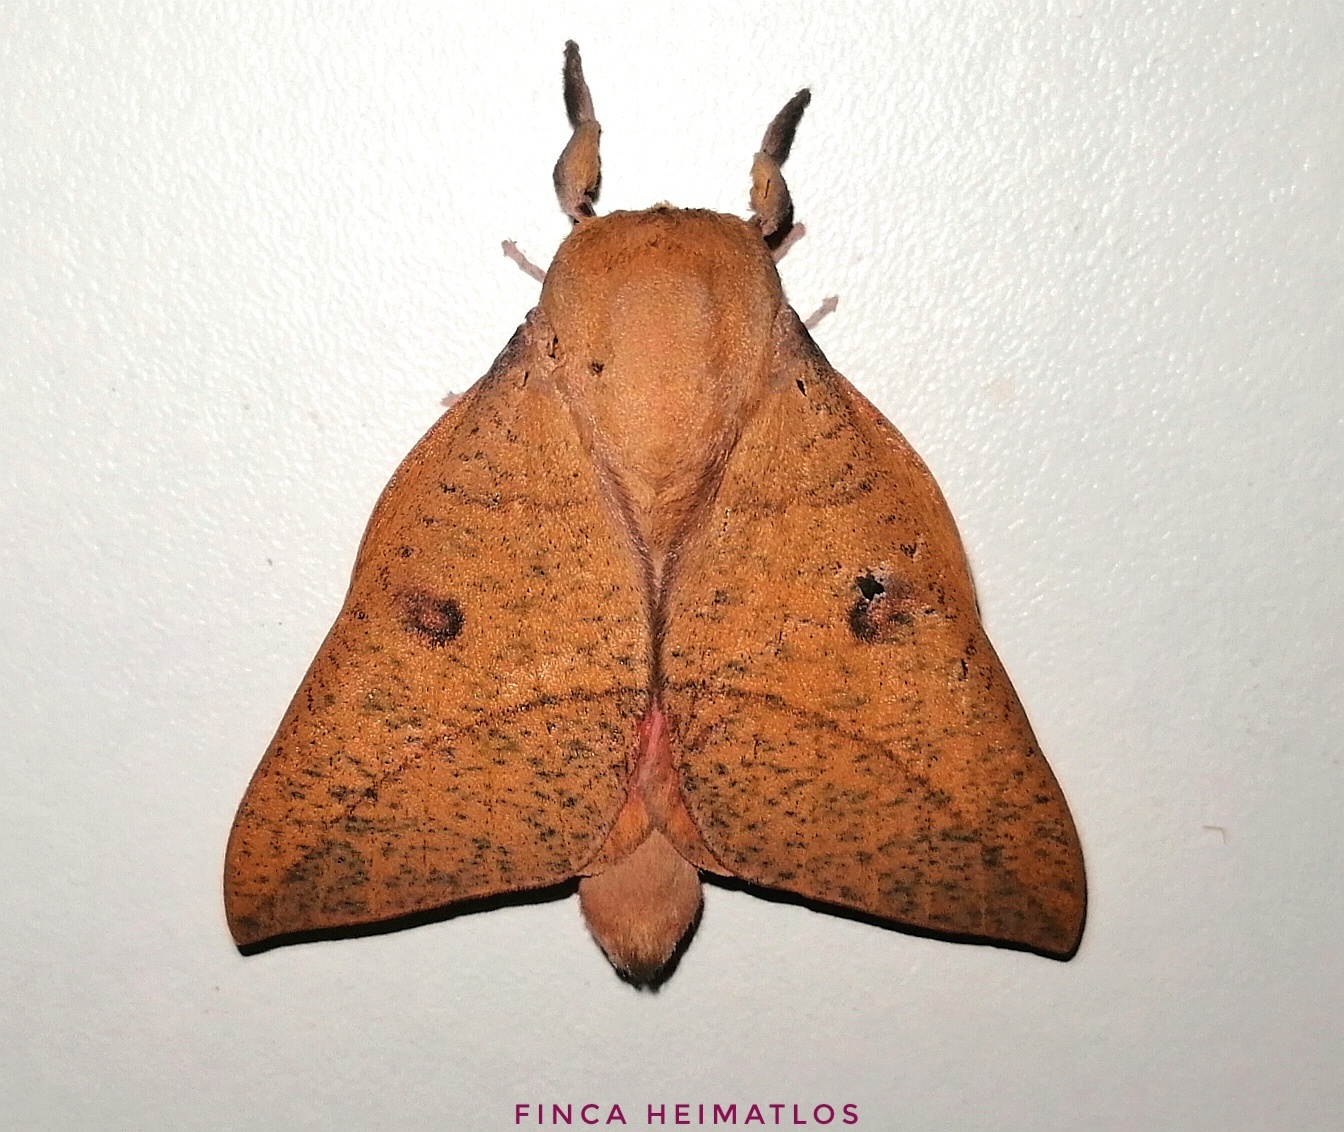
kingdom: Animalia
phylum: Arthropoda
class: Insecta
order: Lepidoptera
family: Saturniidae
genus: Adeloneivaia
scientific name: Adeloneivaia subangulata
